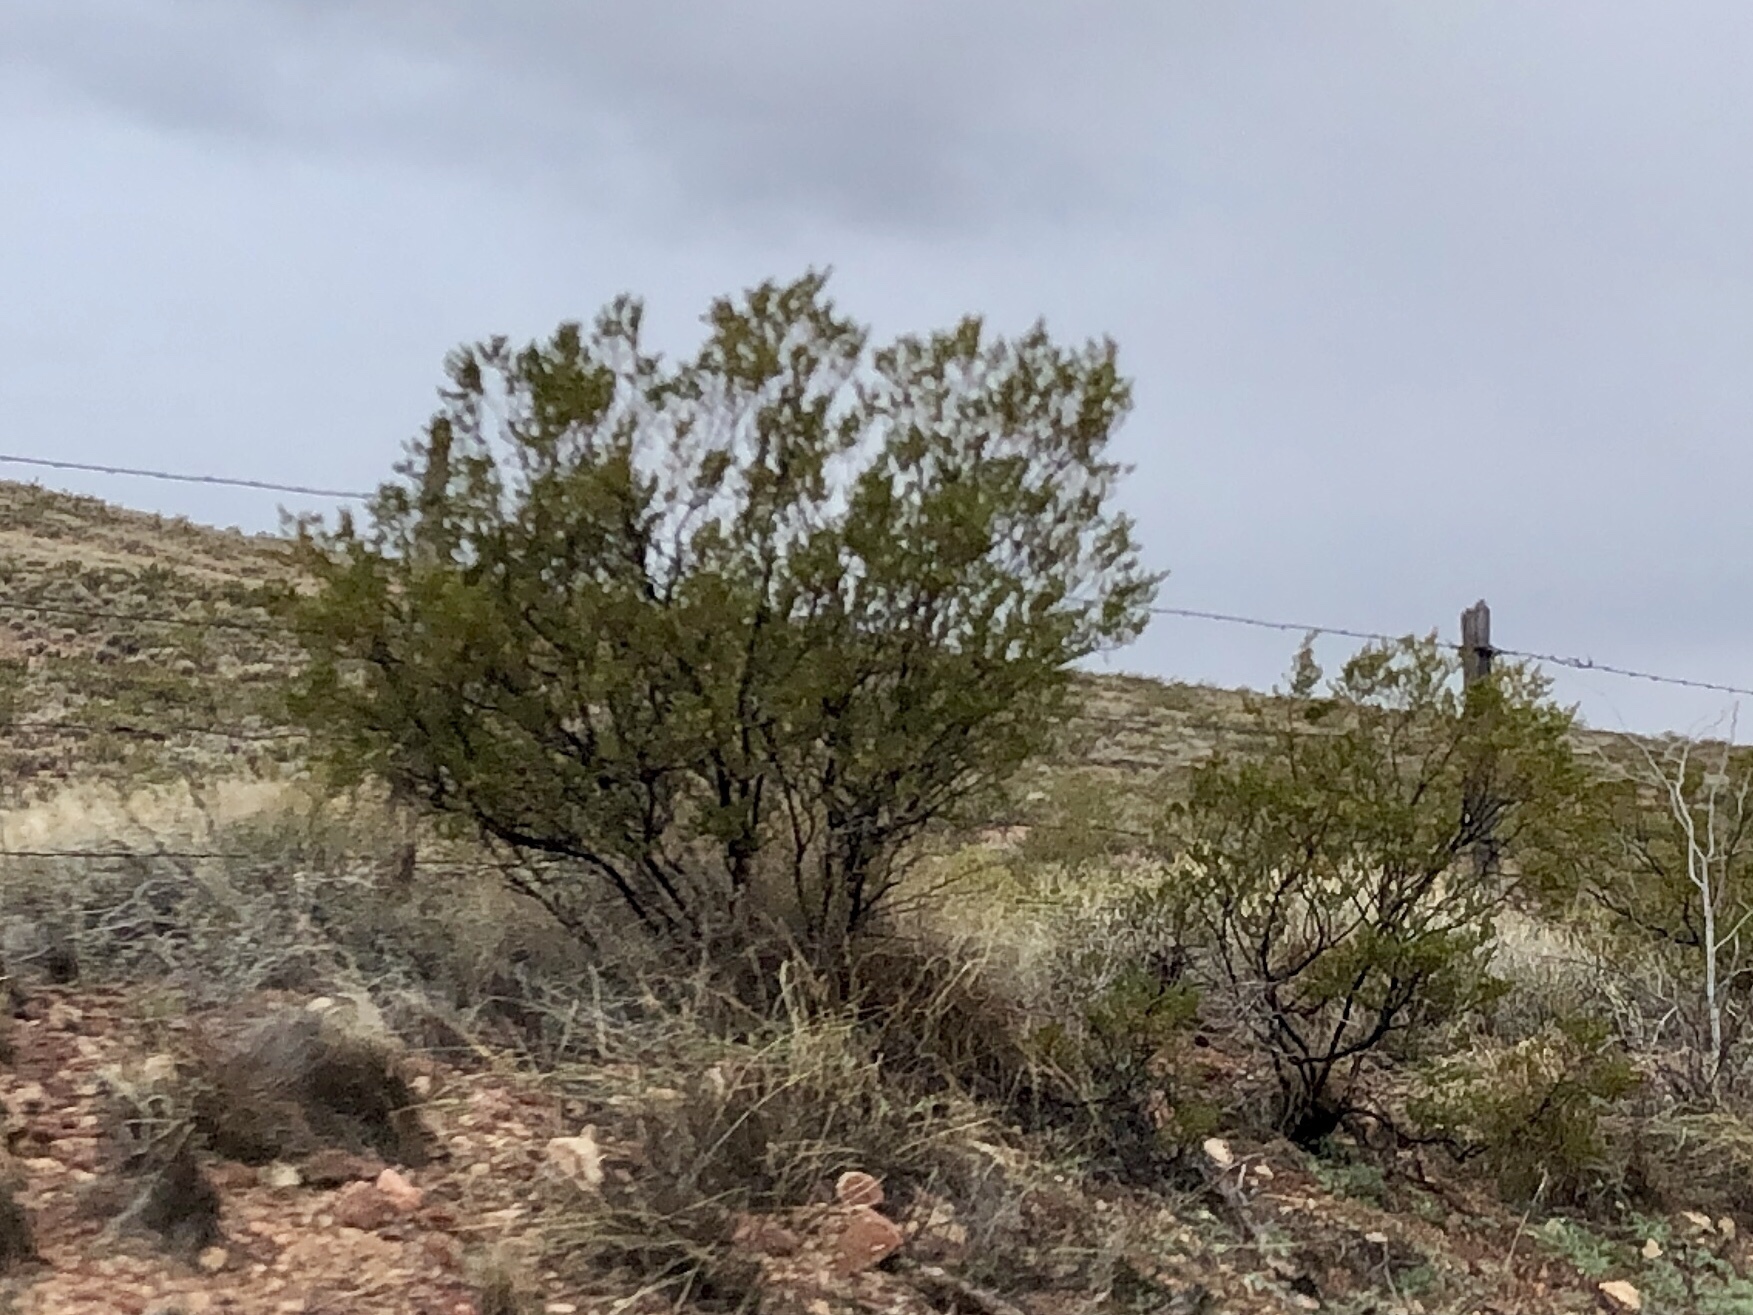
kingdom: Plantae
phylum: Tracheophyta
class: Magnoliopsida
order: Zygophyllales
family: Zygophyllaceae
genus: Larrea
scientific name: Larrea tridentata
